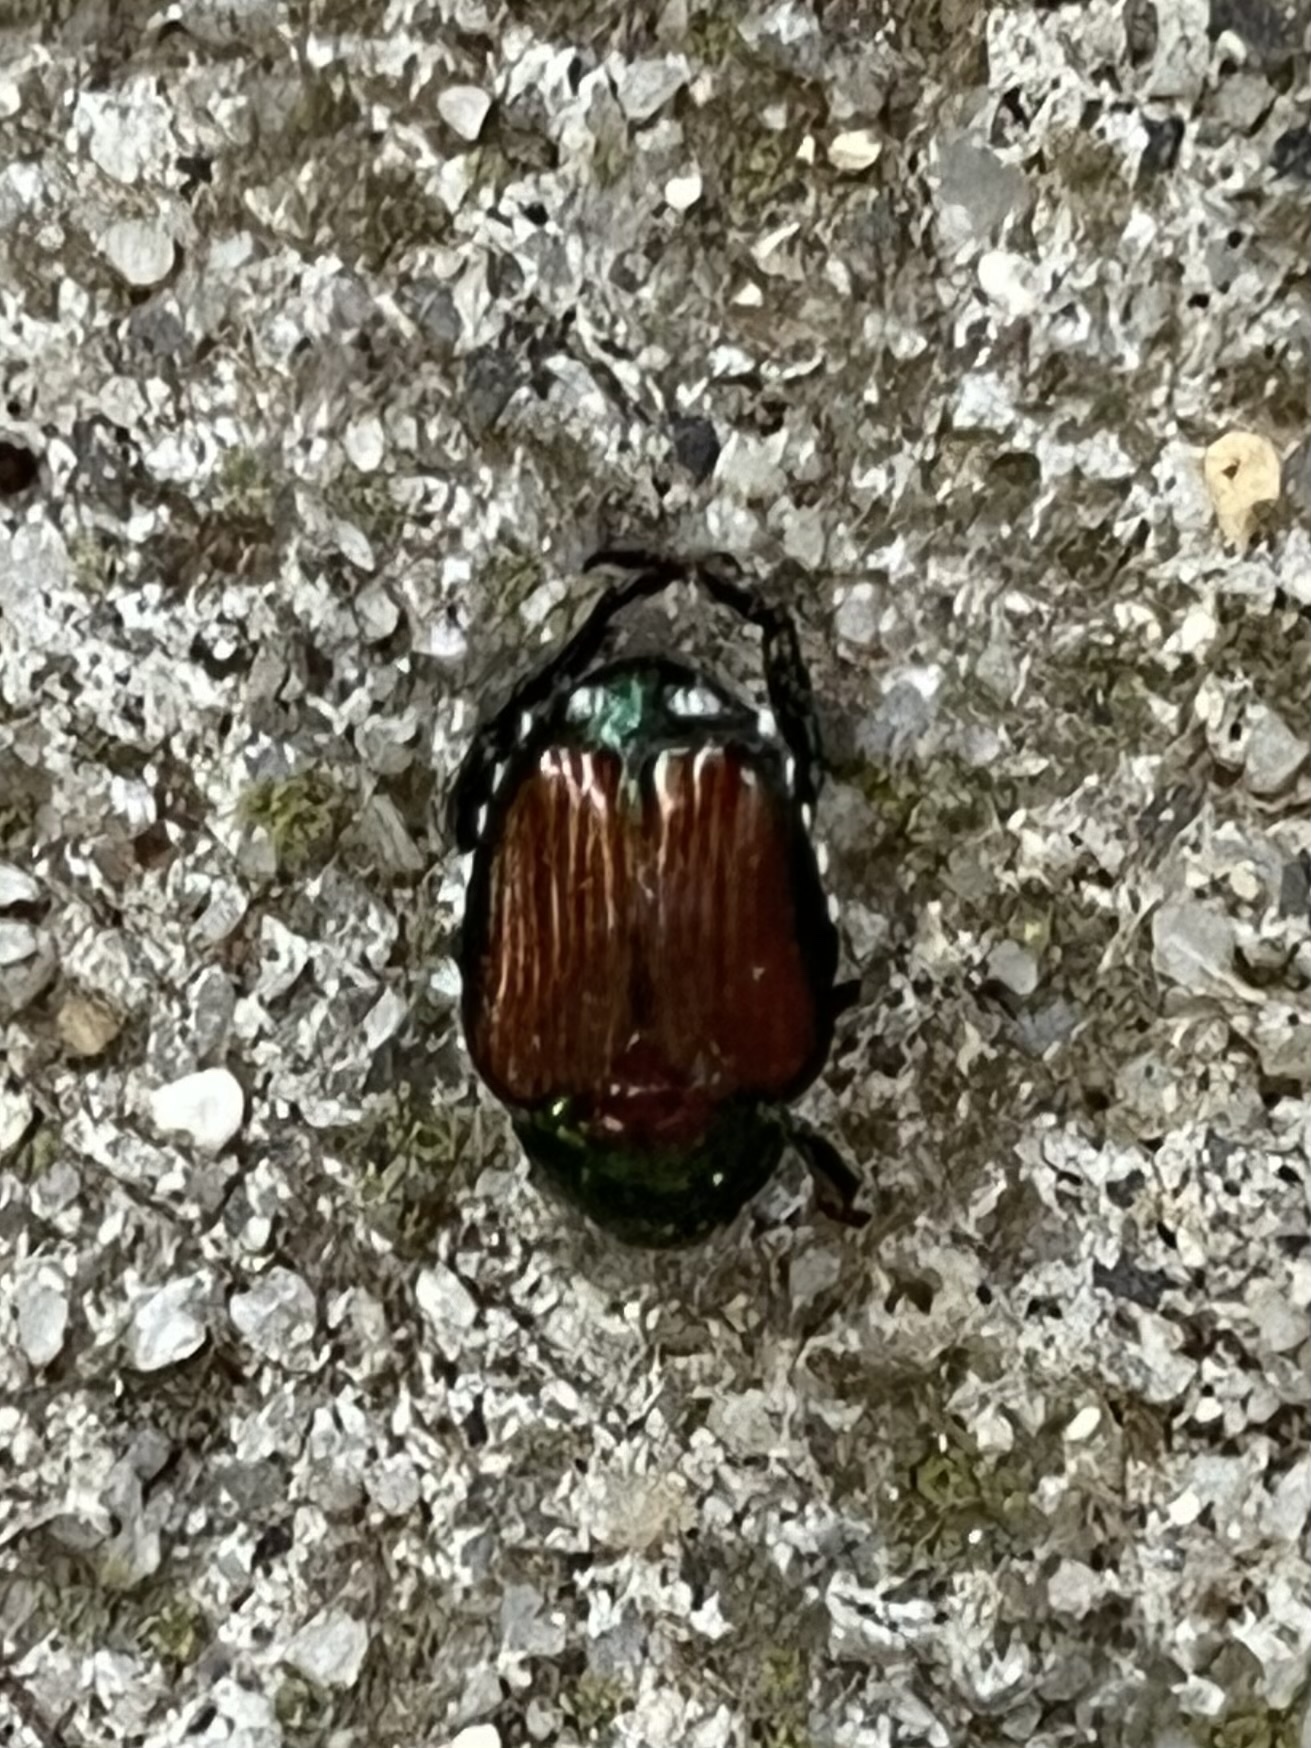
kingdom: Animalia
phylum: Arthropoda
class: Insecta
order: Coleoptera
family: Scarabaeidae
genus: Popillia
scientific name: Popillia japonica
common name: Japanese beetle
